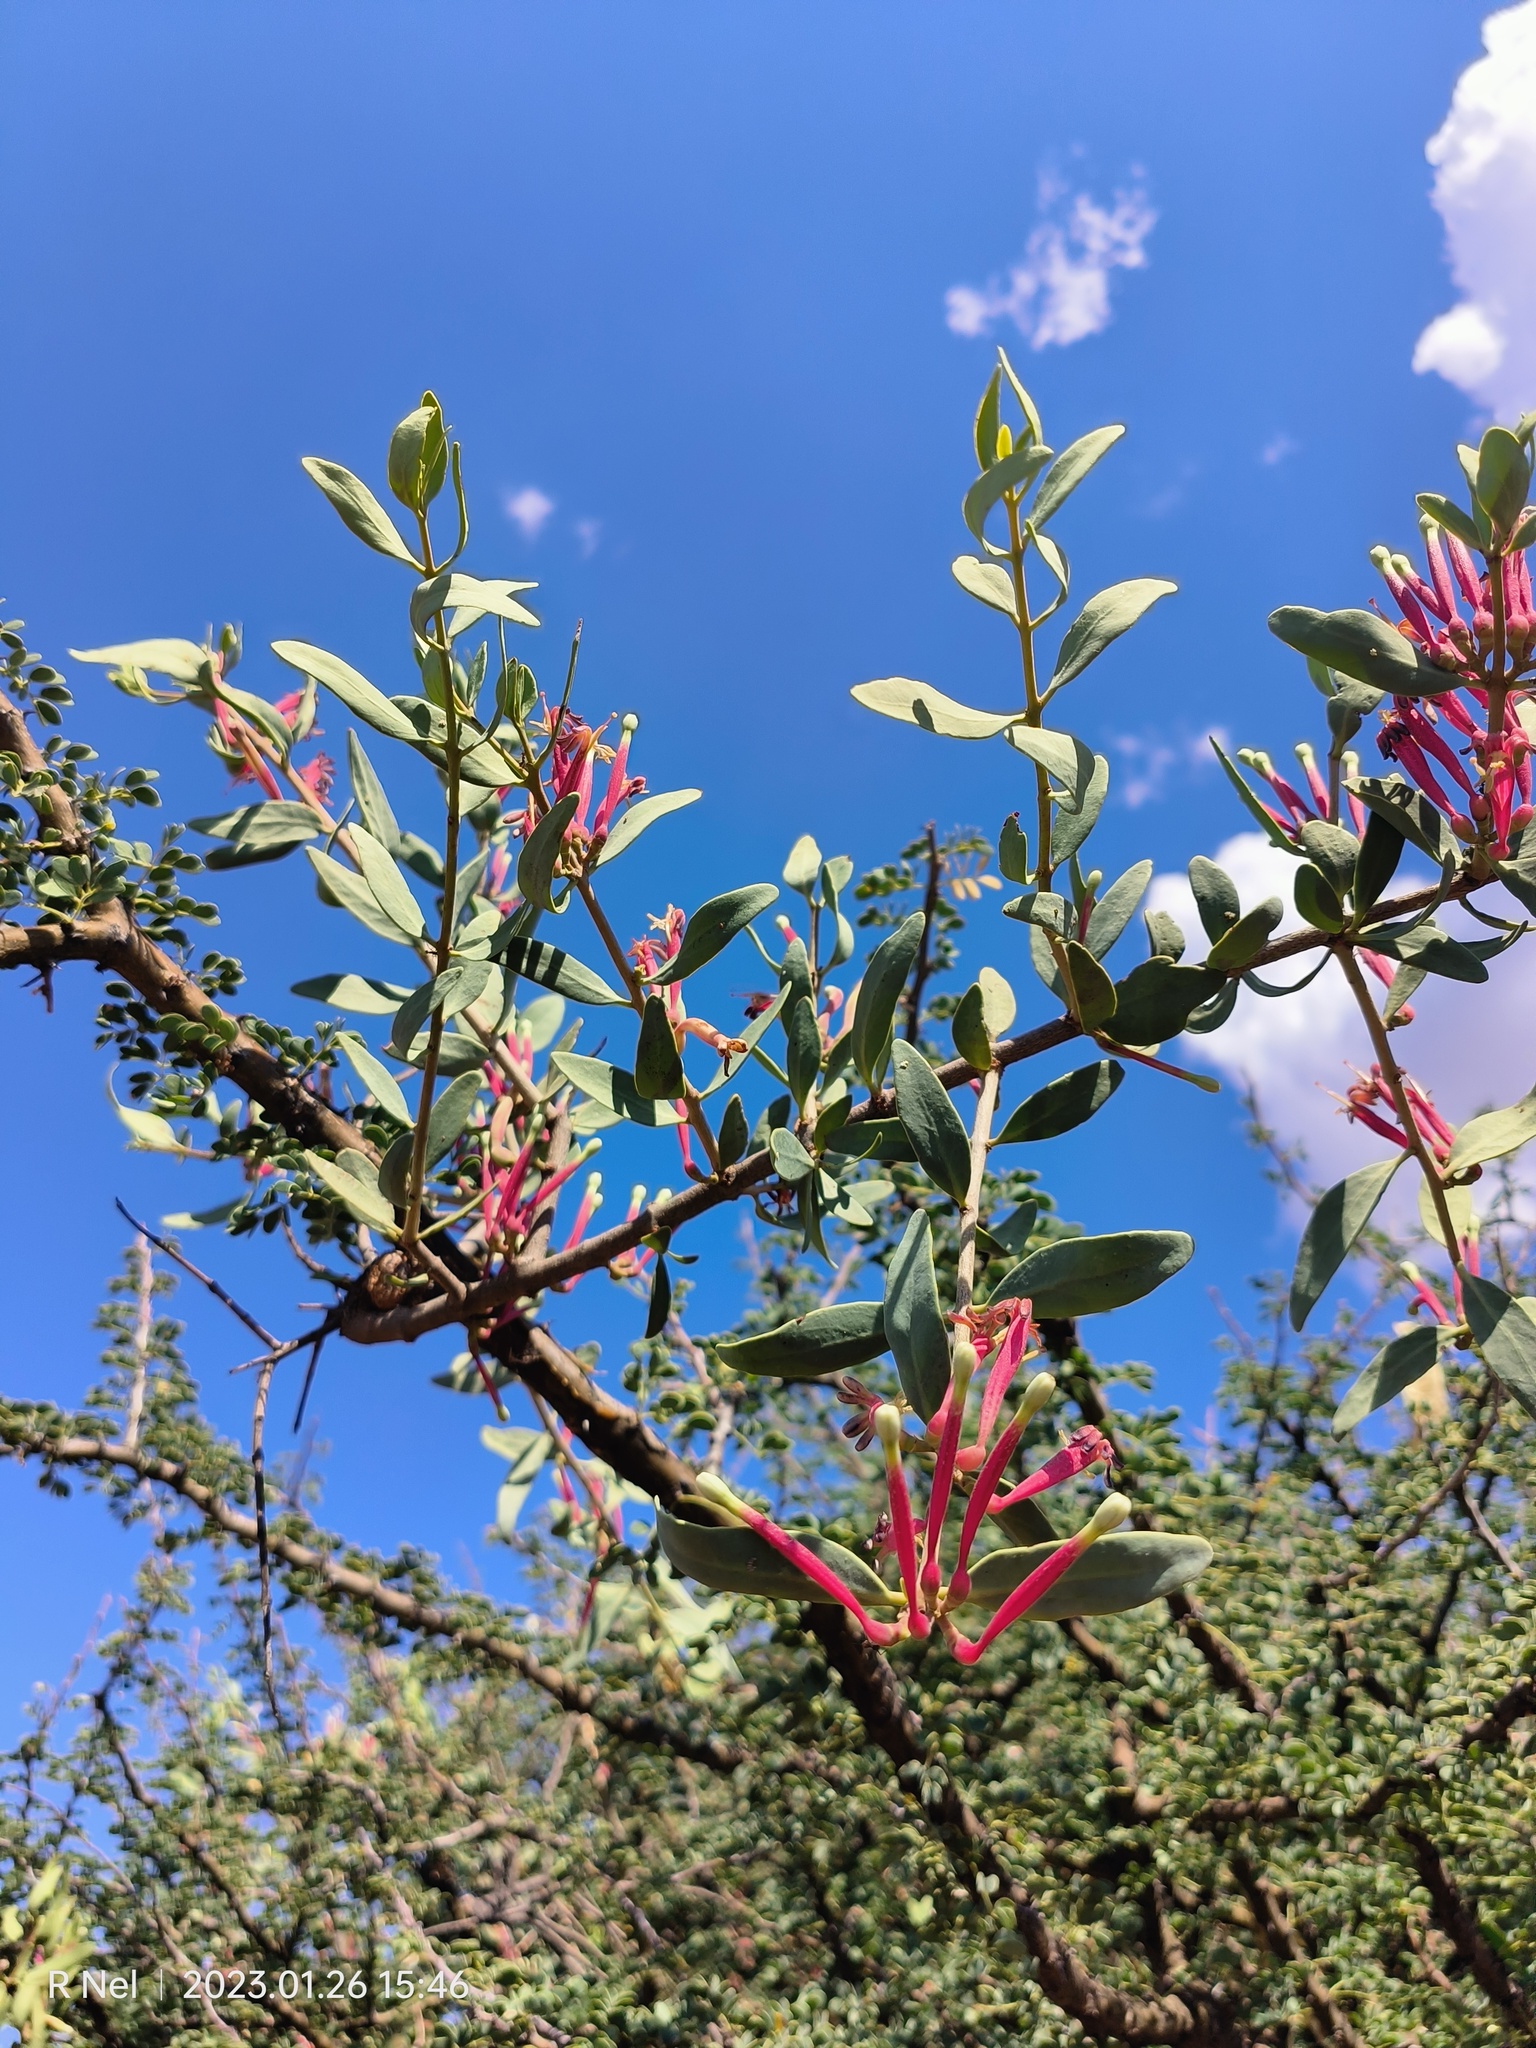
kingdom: Plantae
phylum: Tracheophyta
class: Magnoliopsida
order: Santalales
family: Loranthaceae
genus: Tapinanthus
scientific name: Tapinanthus oleifolius
